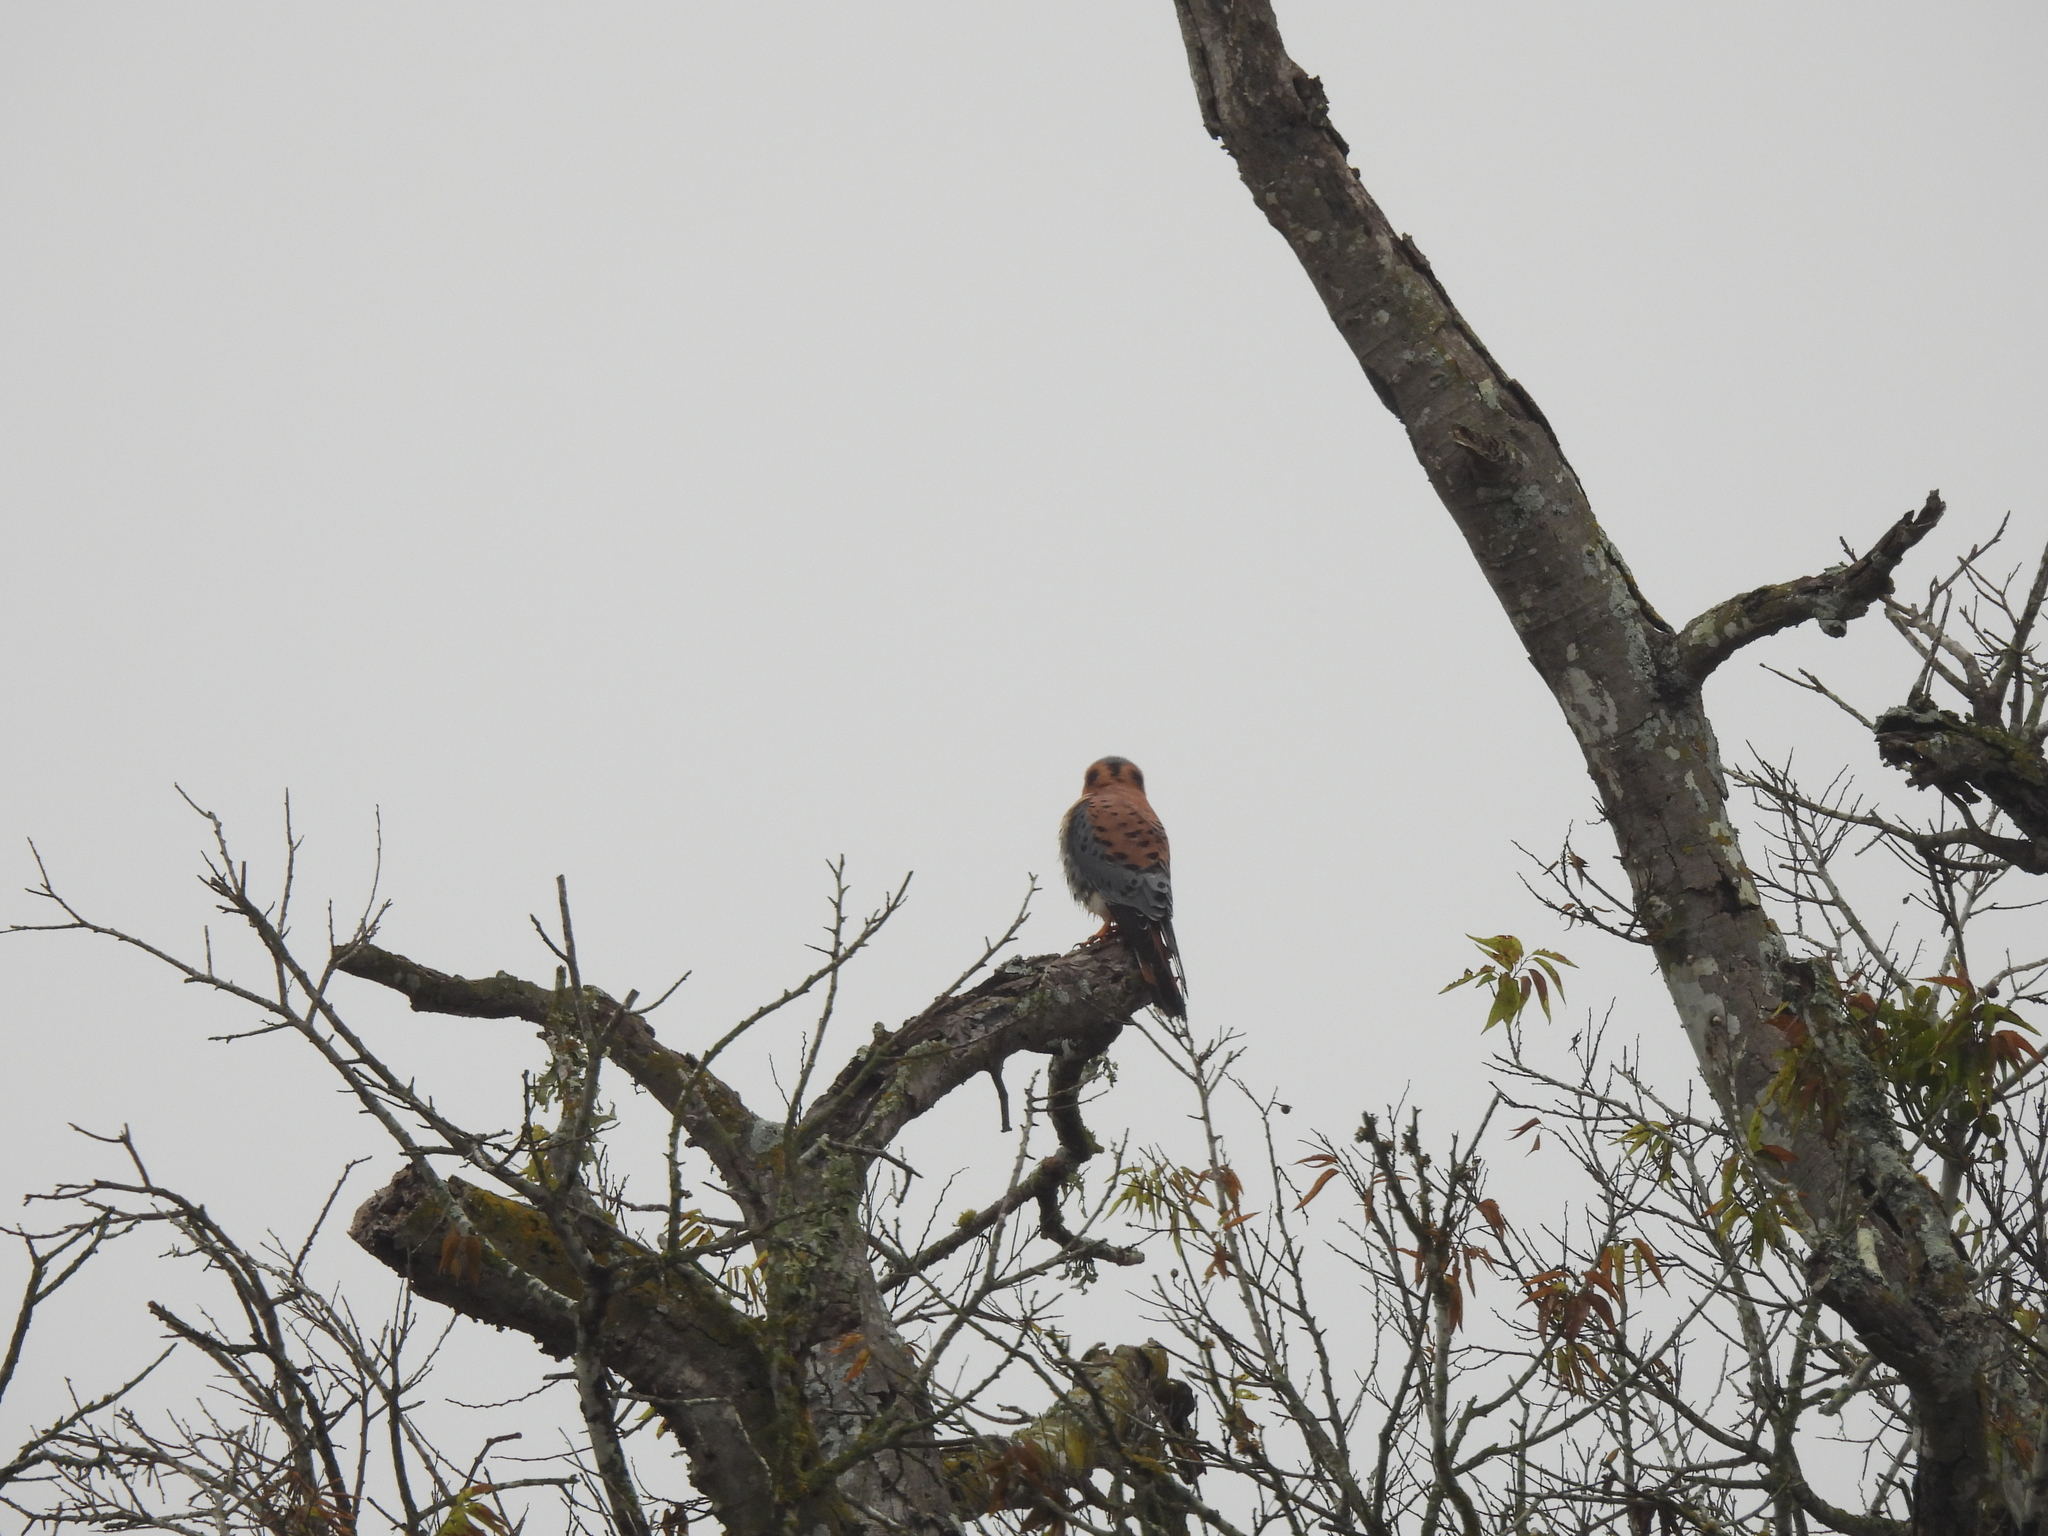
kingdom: Animalia
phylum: Chordata
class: Aves
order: Falconiformes
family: Falconidae
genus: Falco
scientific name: Falco sparverius
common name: American kestrel
